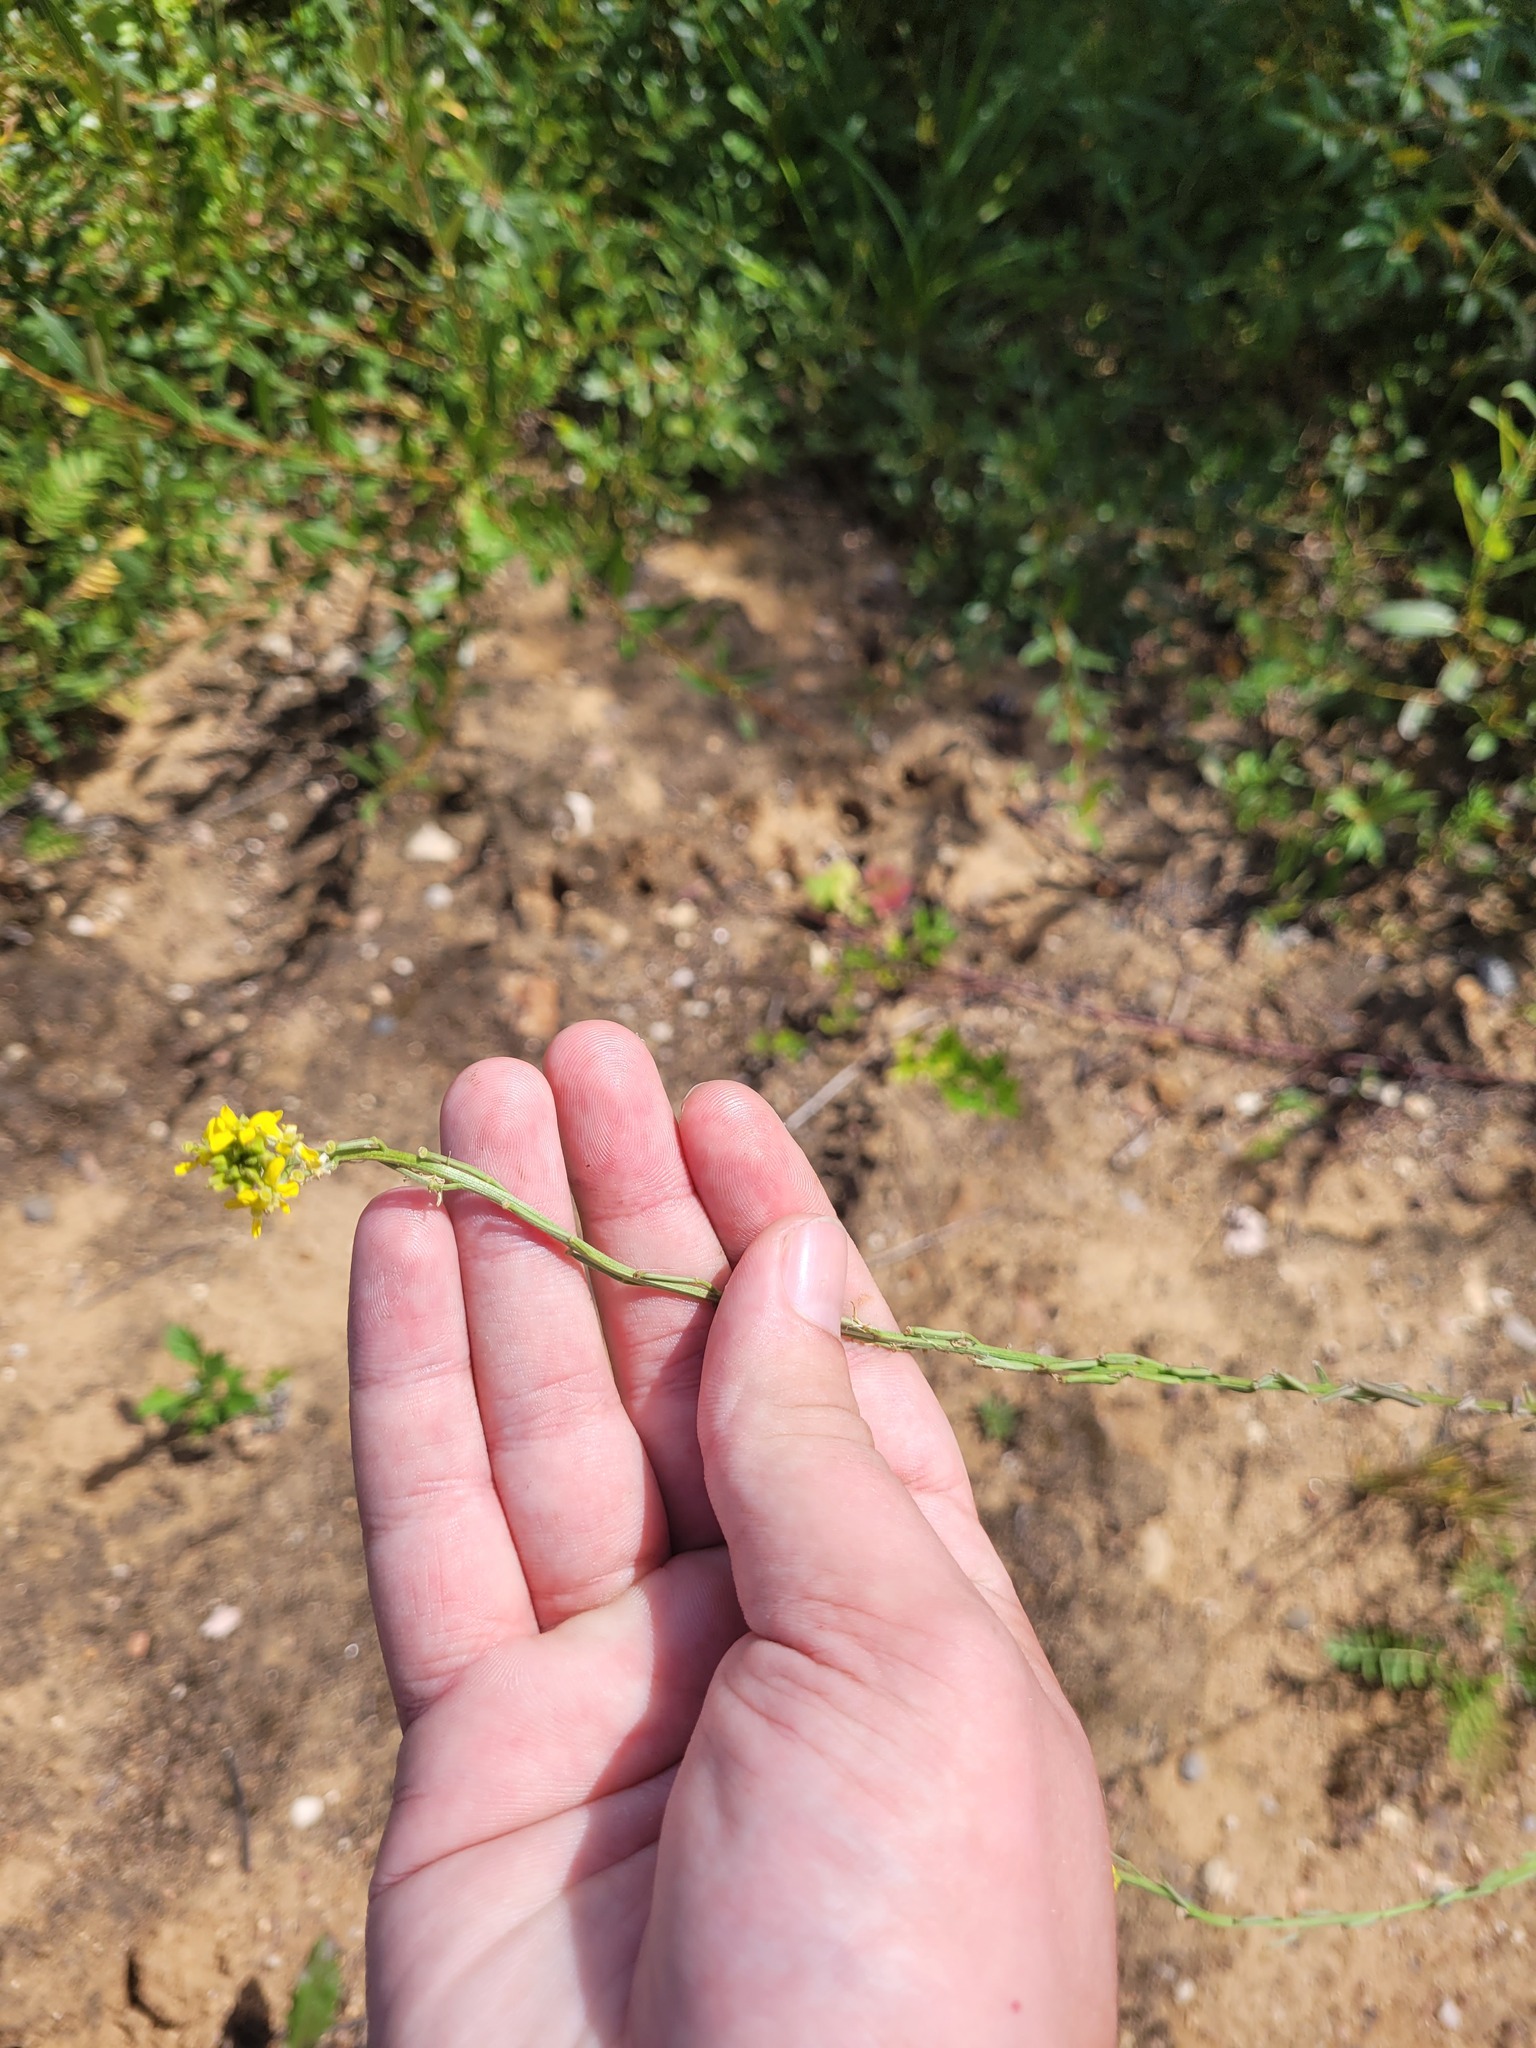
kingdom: Plantae
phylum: Tracheophyta
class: Magnoliopsida
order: Brassicales
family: Brassicaceae
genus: Erysimum
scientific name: Erysimum hieraciifolium
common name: European wallflower
